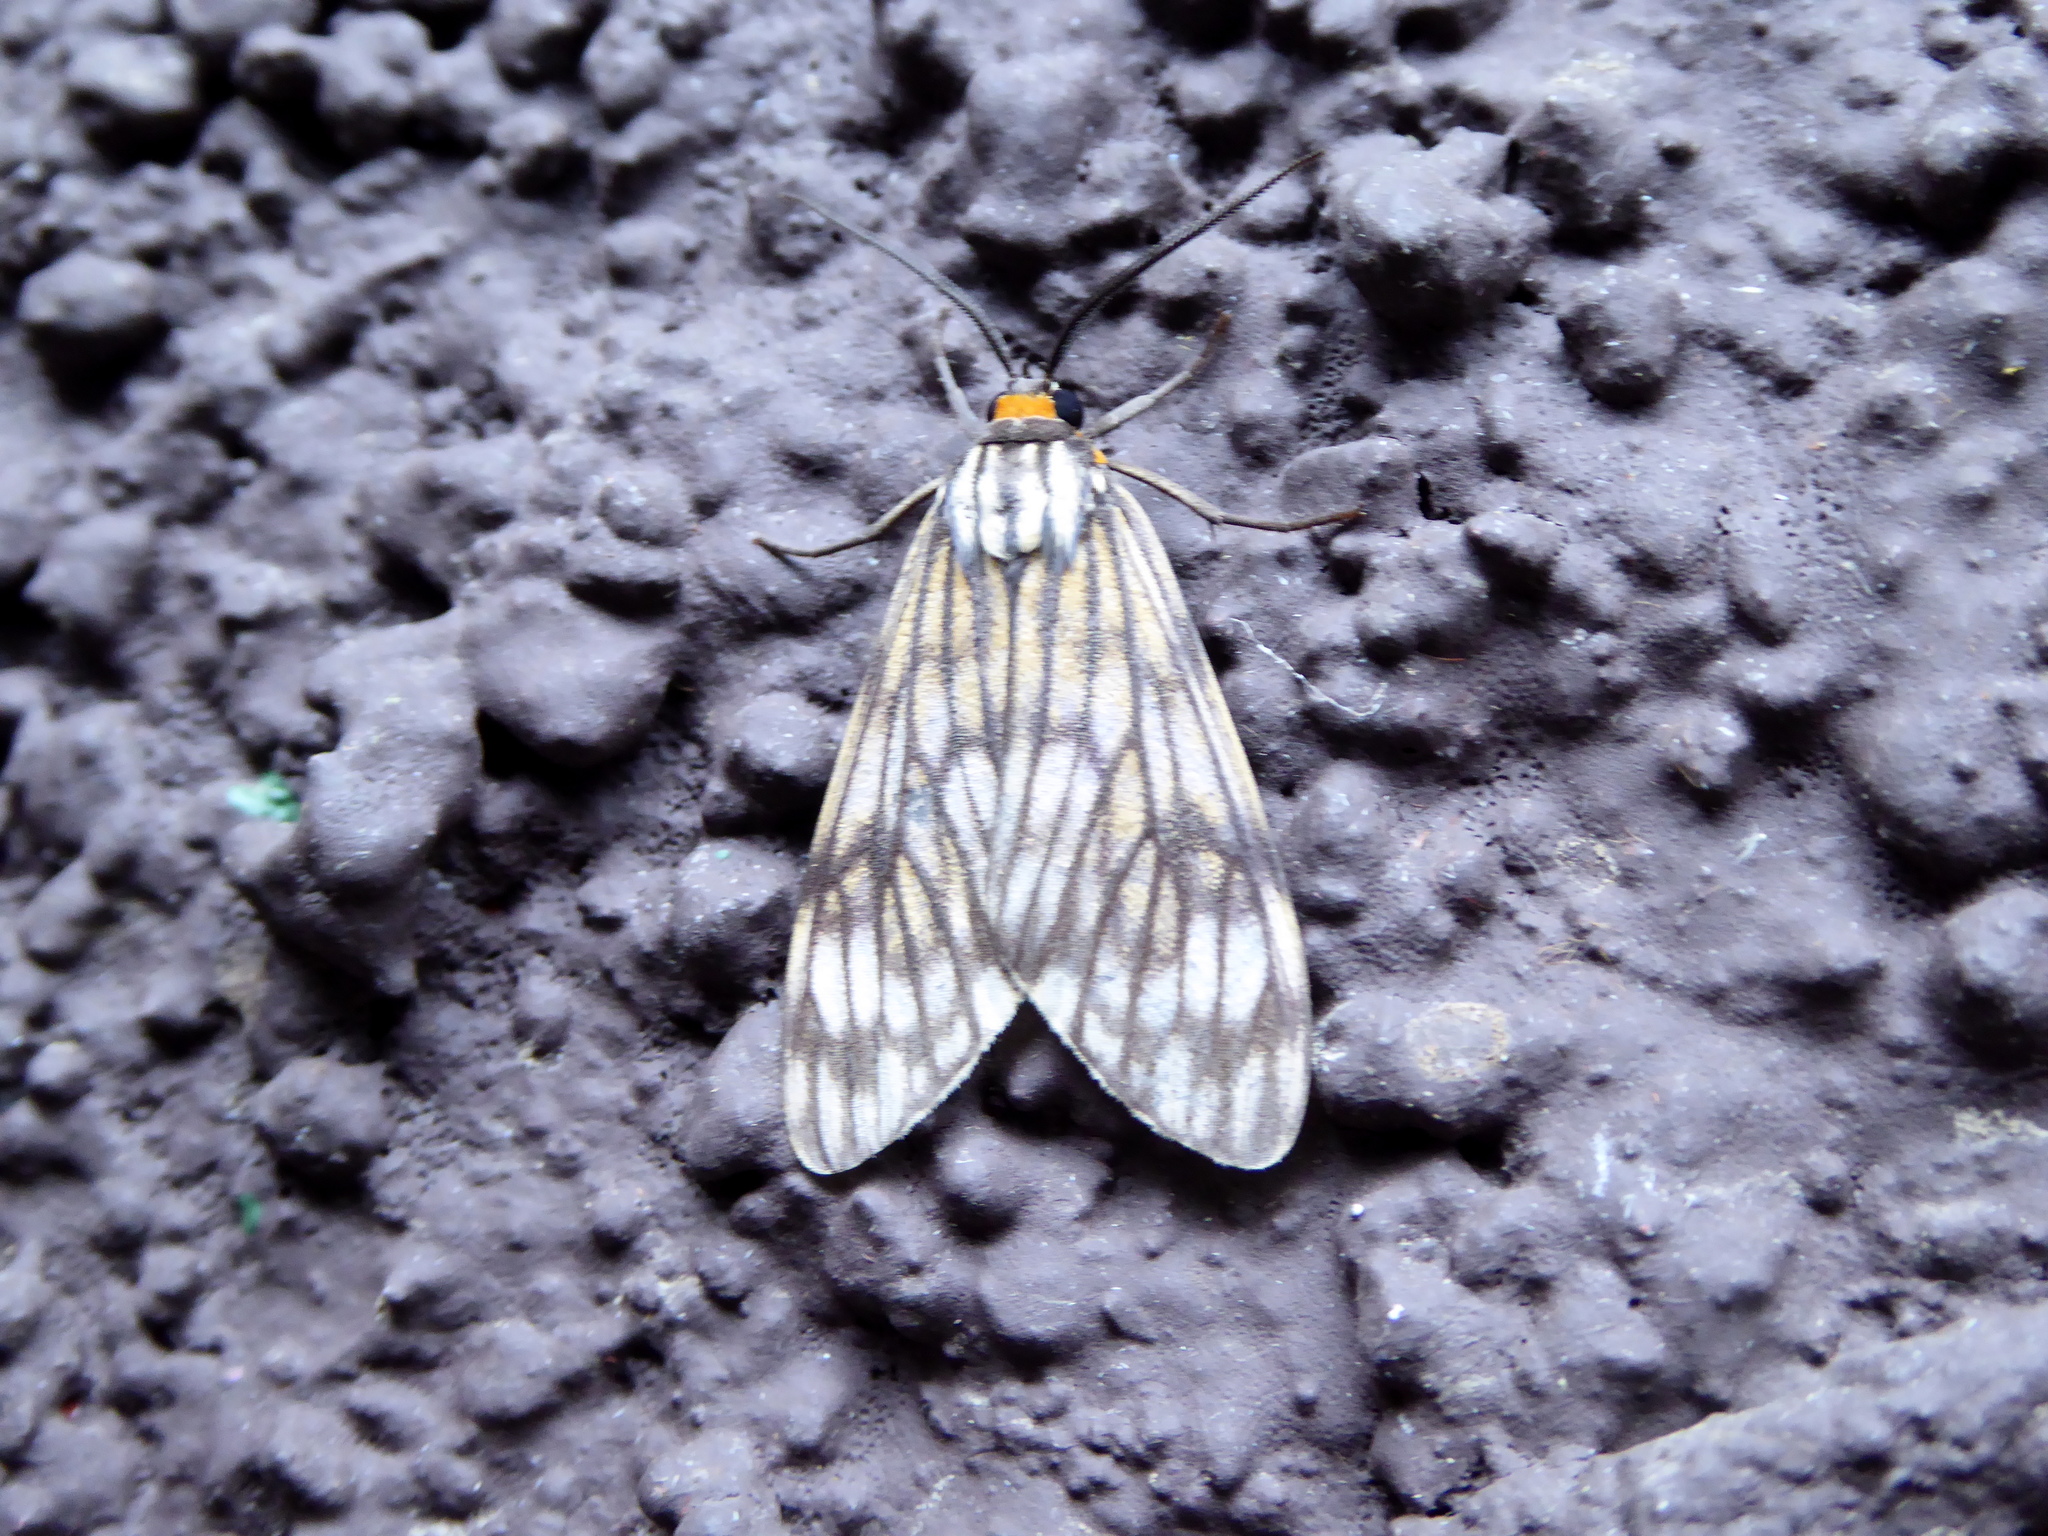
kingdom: Animalia
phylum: Arthropoda
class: Insecta
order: Lepidoptera
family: Erebidae
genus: Theages
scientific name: Theages decorum
